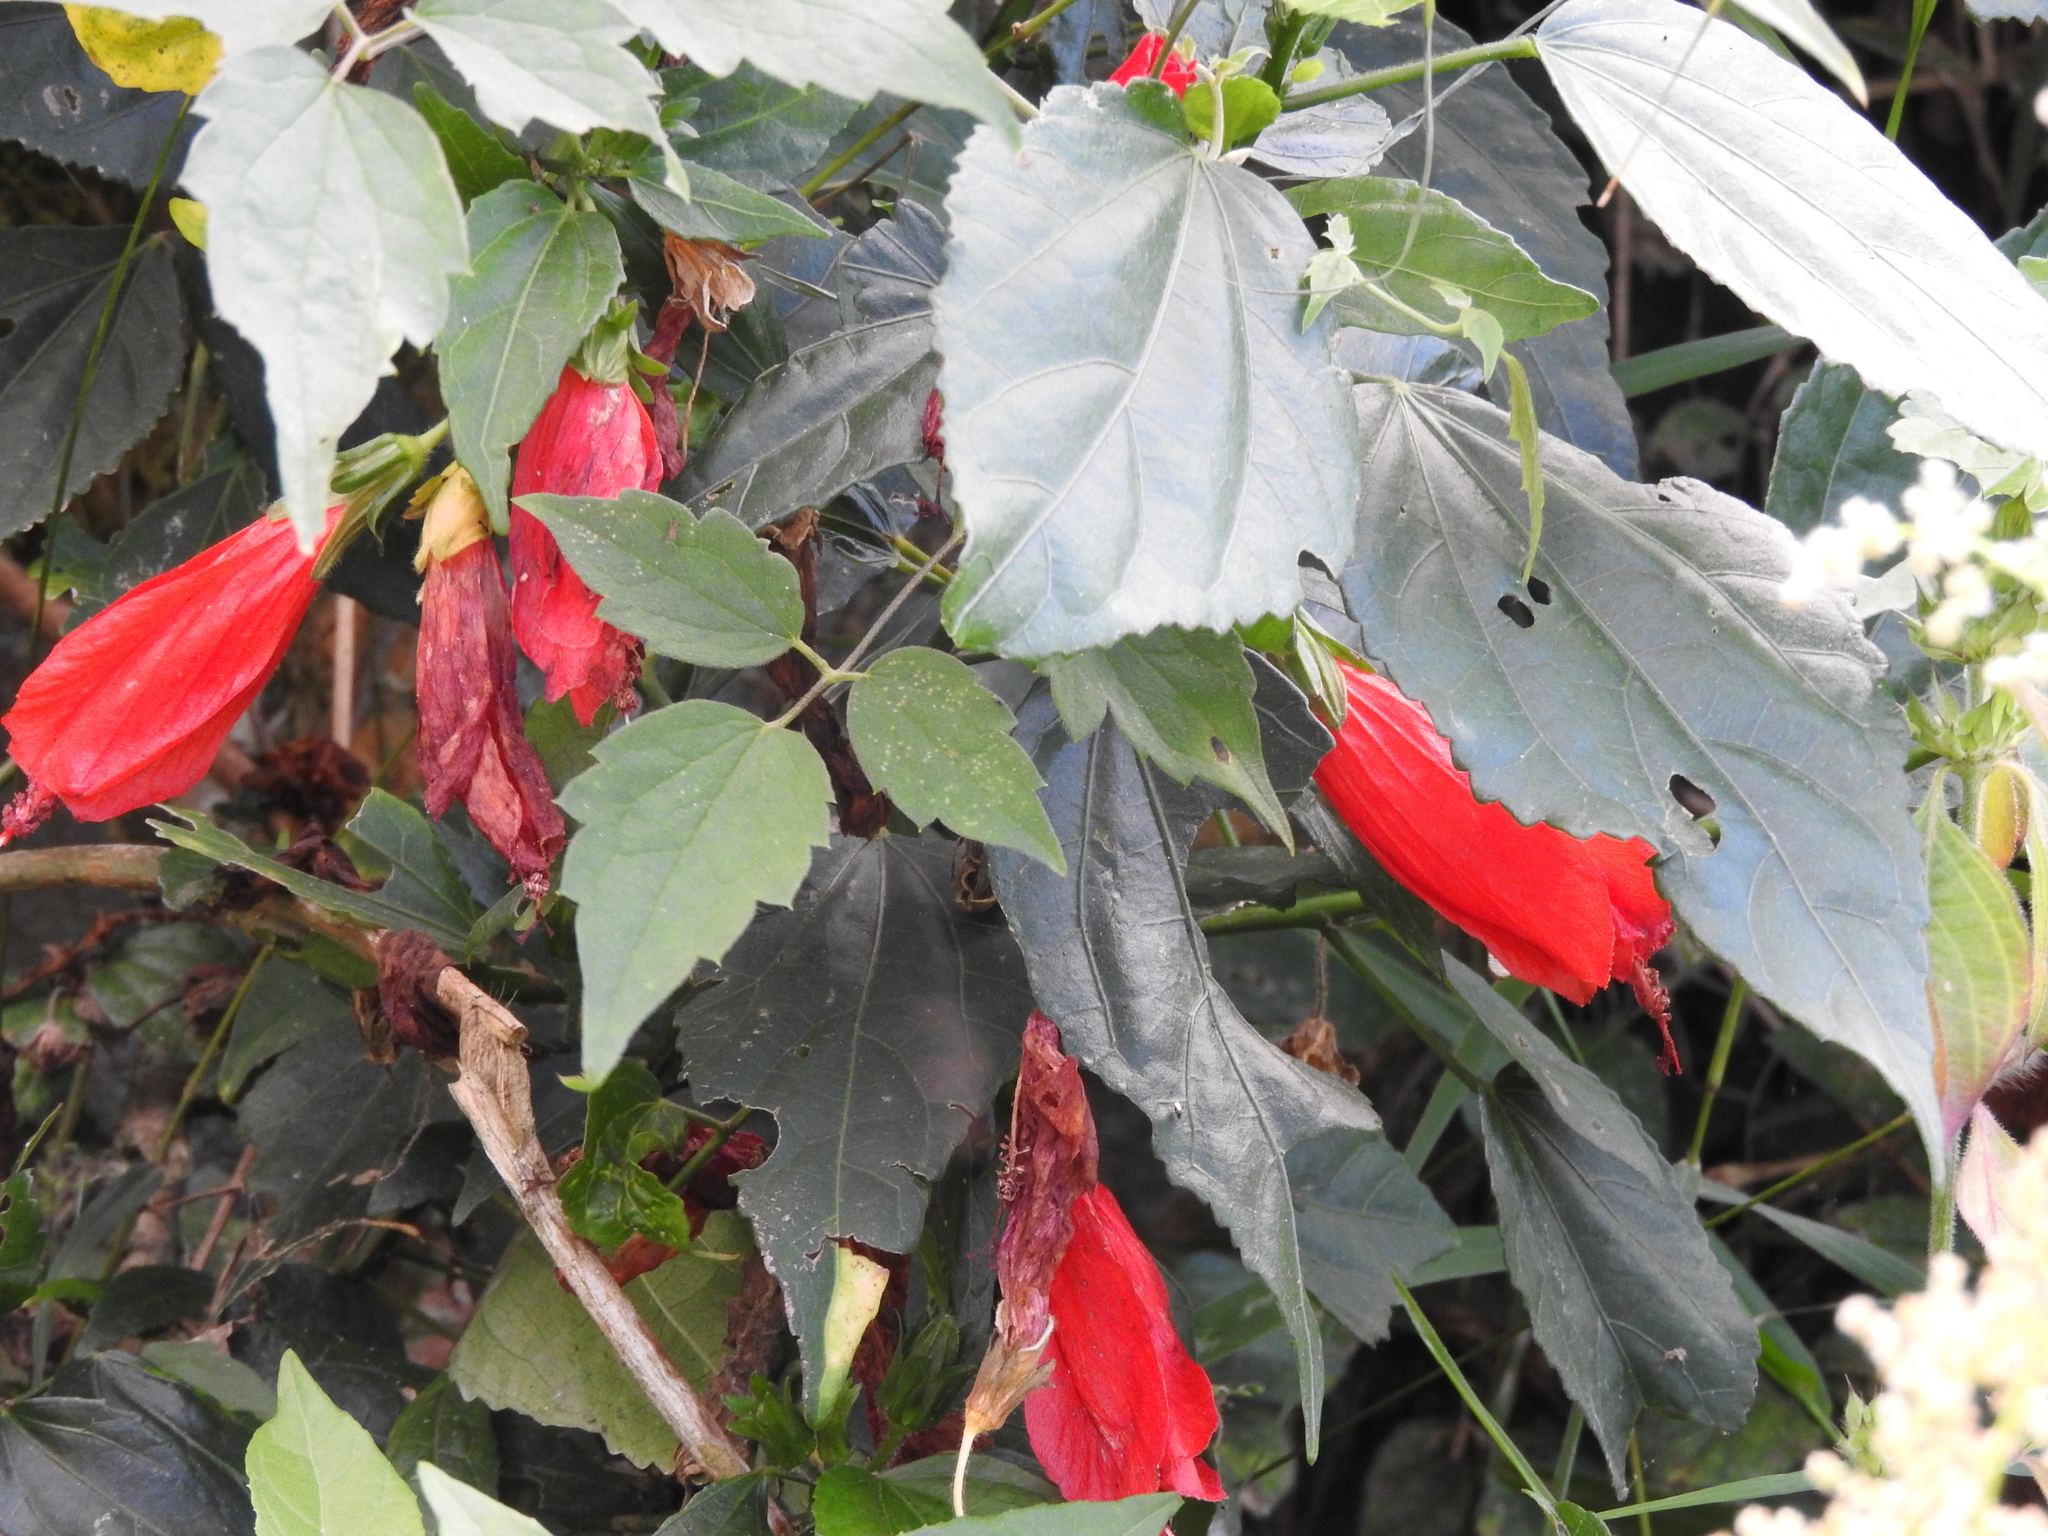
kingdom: Plantae
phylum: Tracheophyta
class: Magnoliopsida
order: Malvales
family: Malvaceae
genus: Malvaviscus
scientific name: Malvaviscus penduliflorus
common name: Mazapan
